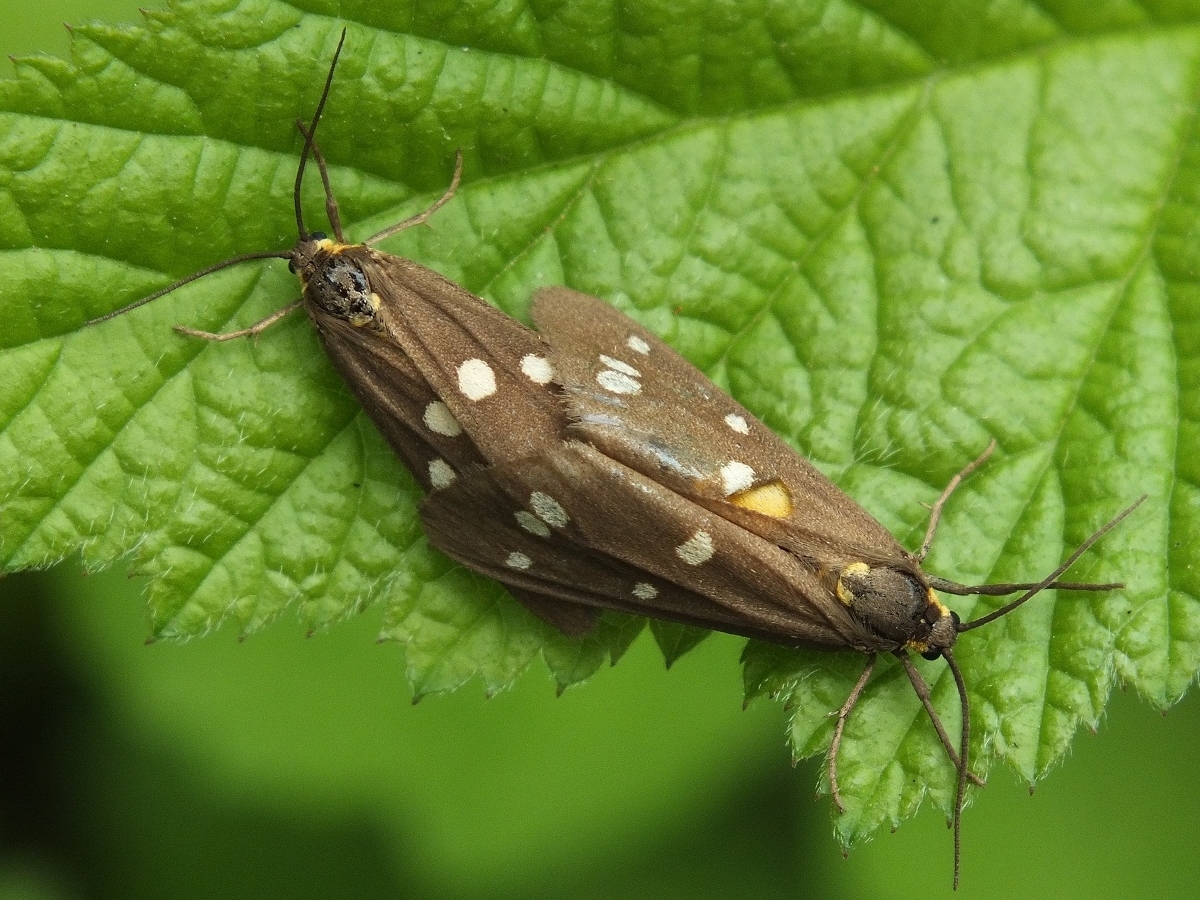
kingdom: Animalia
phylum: Arthropoda
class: Insecta
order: Lepidoptera
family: Erebidae
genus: Dysauxes
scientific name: Dysauxes punctata
